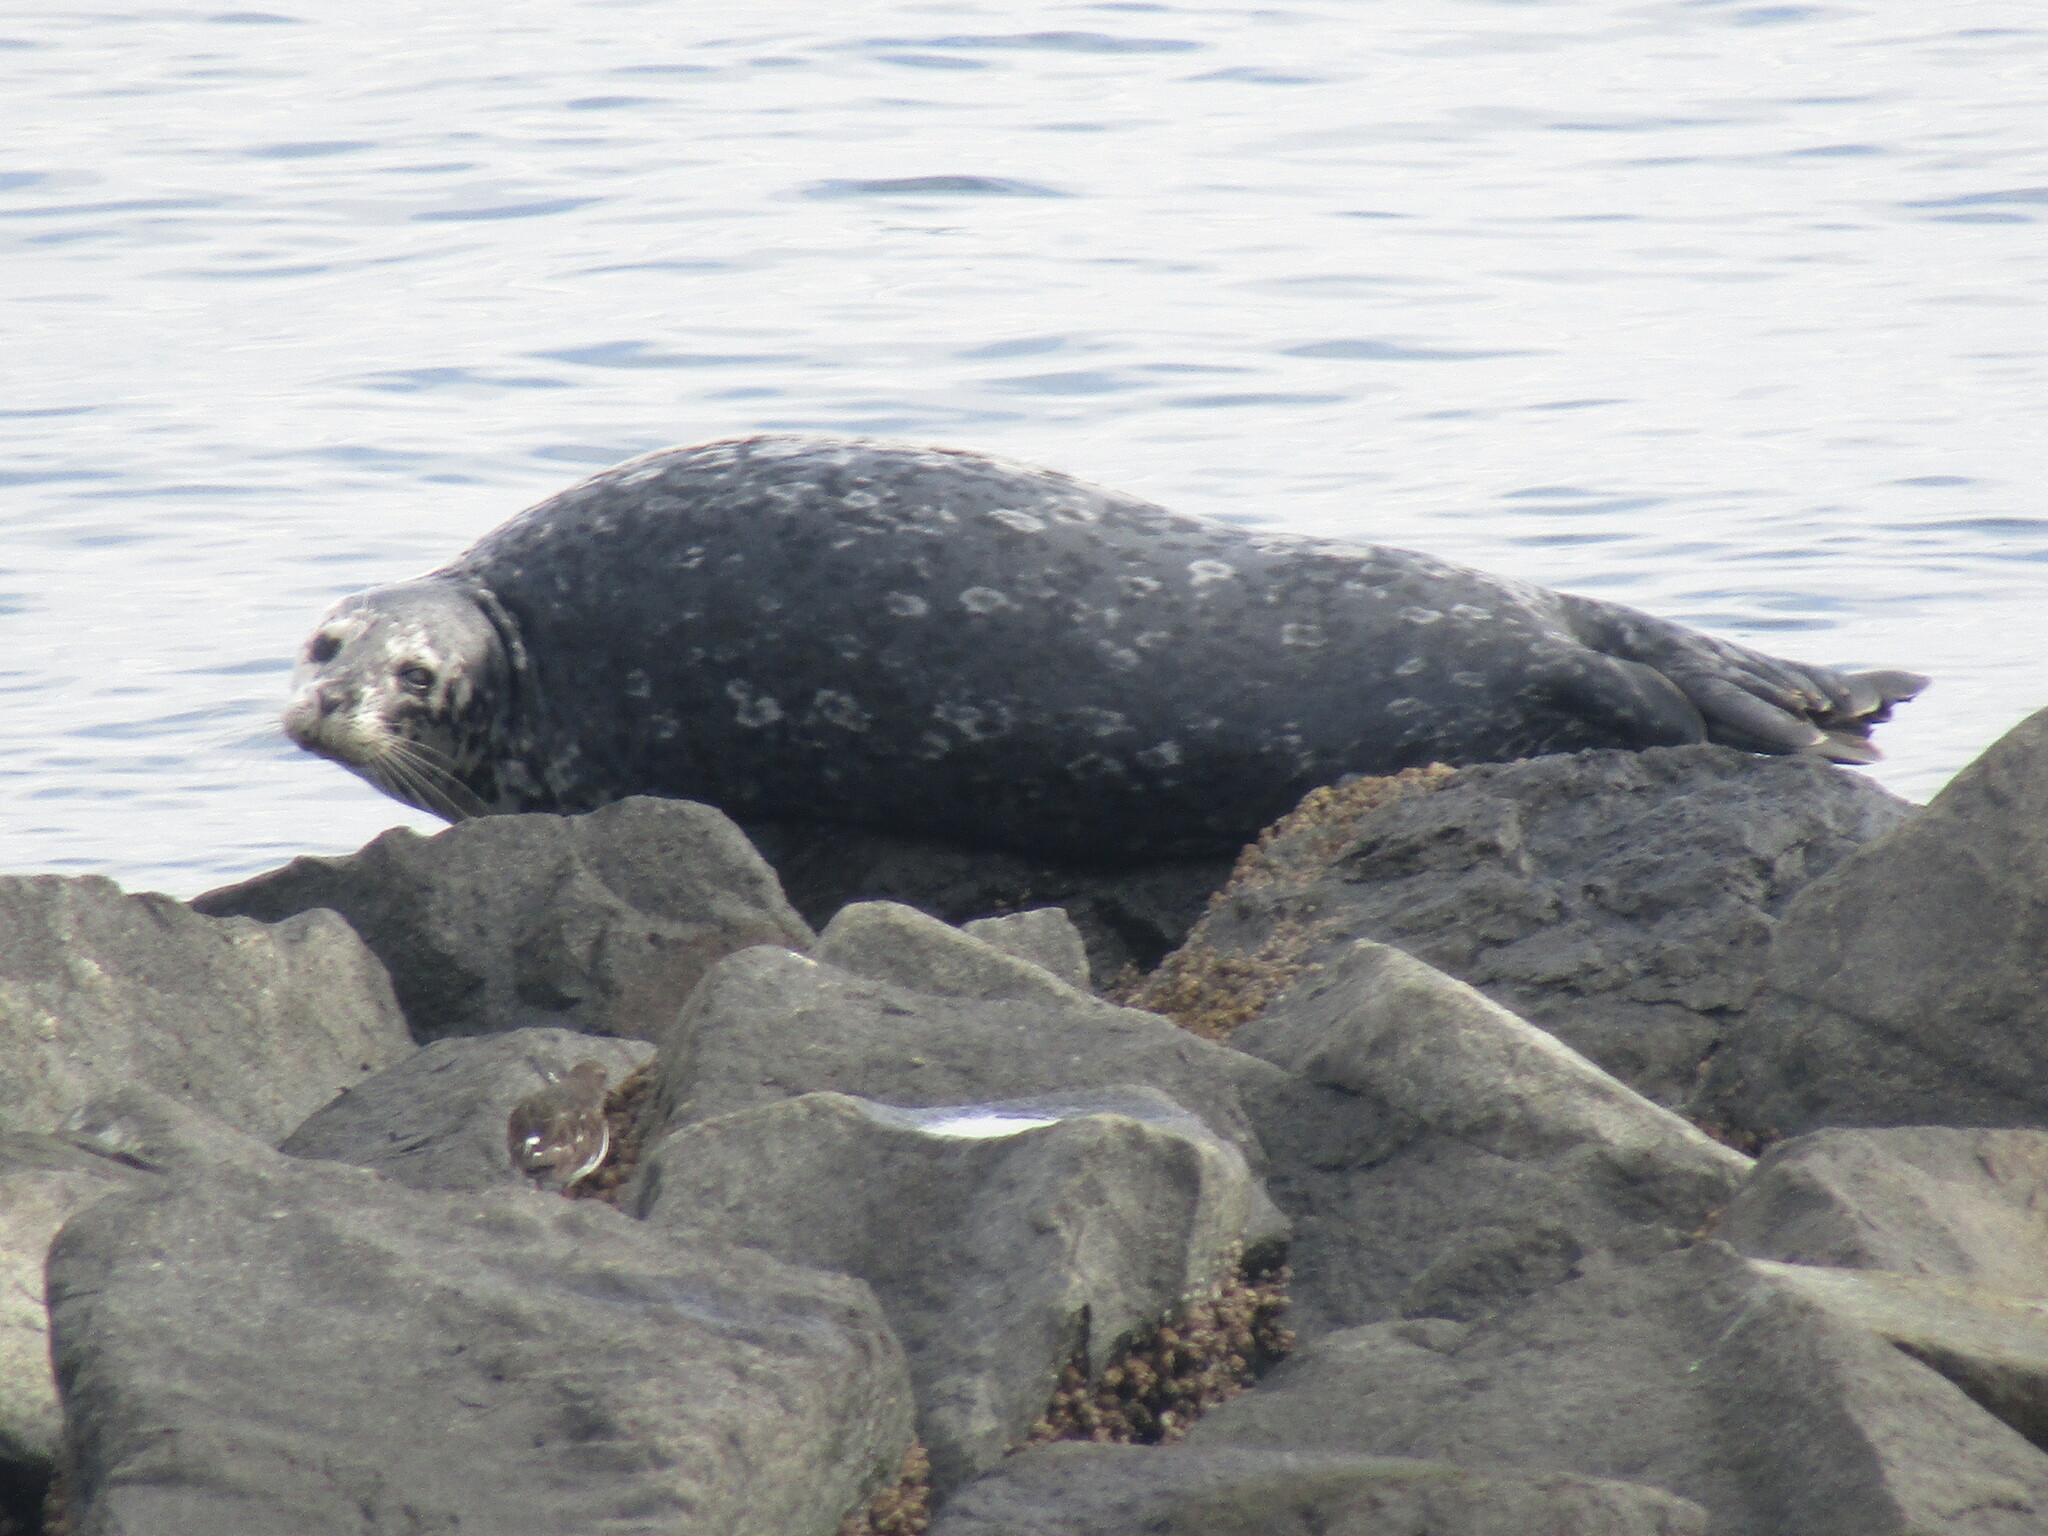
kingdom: Animalia
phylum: Chordata
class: Mammalia
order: Carnivora
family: Phocidae
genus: Phoca
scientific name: Phoca vitulina
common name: Harbor seal
